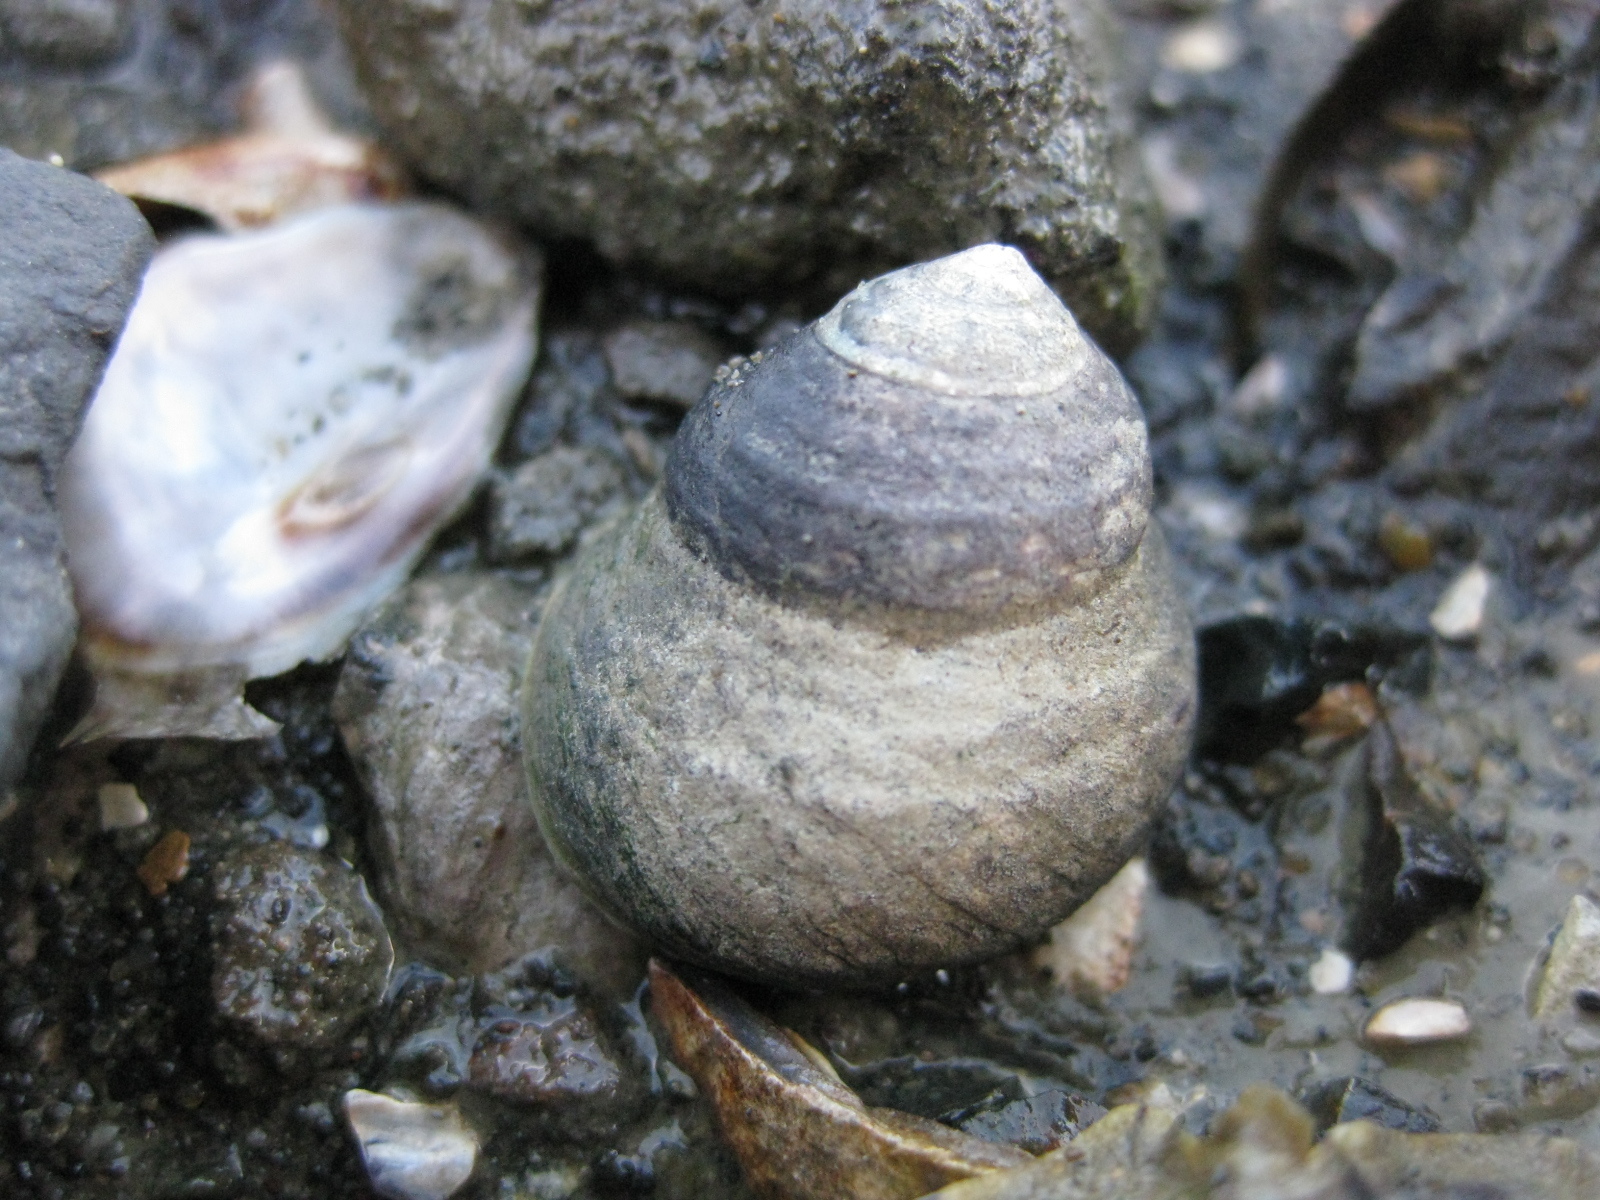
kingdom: Animalia
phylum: Mollusca
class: Gastropoda
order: Trochida
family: Trochidae
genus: Diloma
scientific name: Diloma subrostratum
